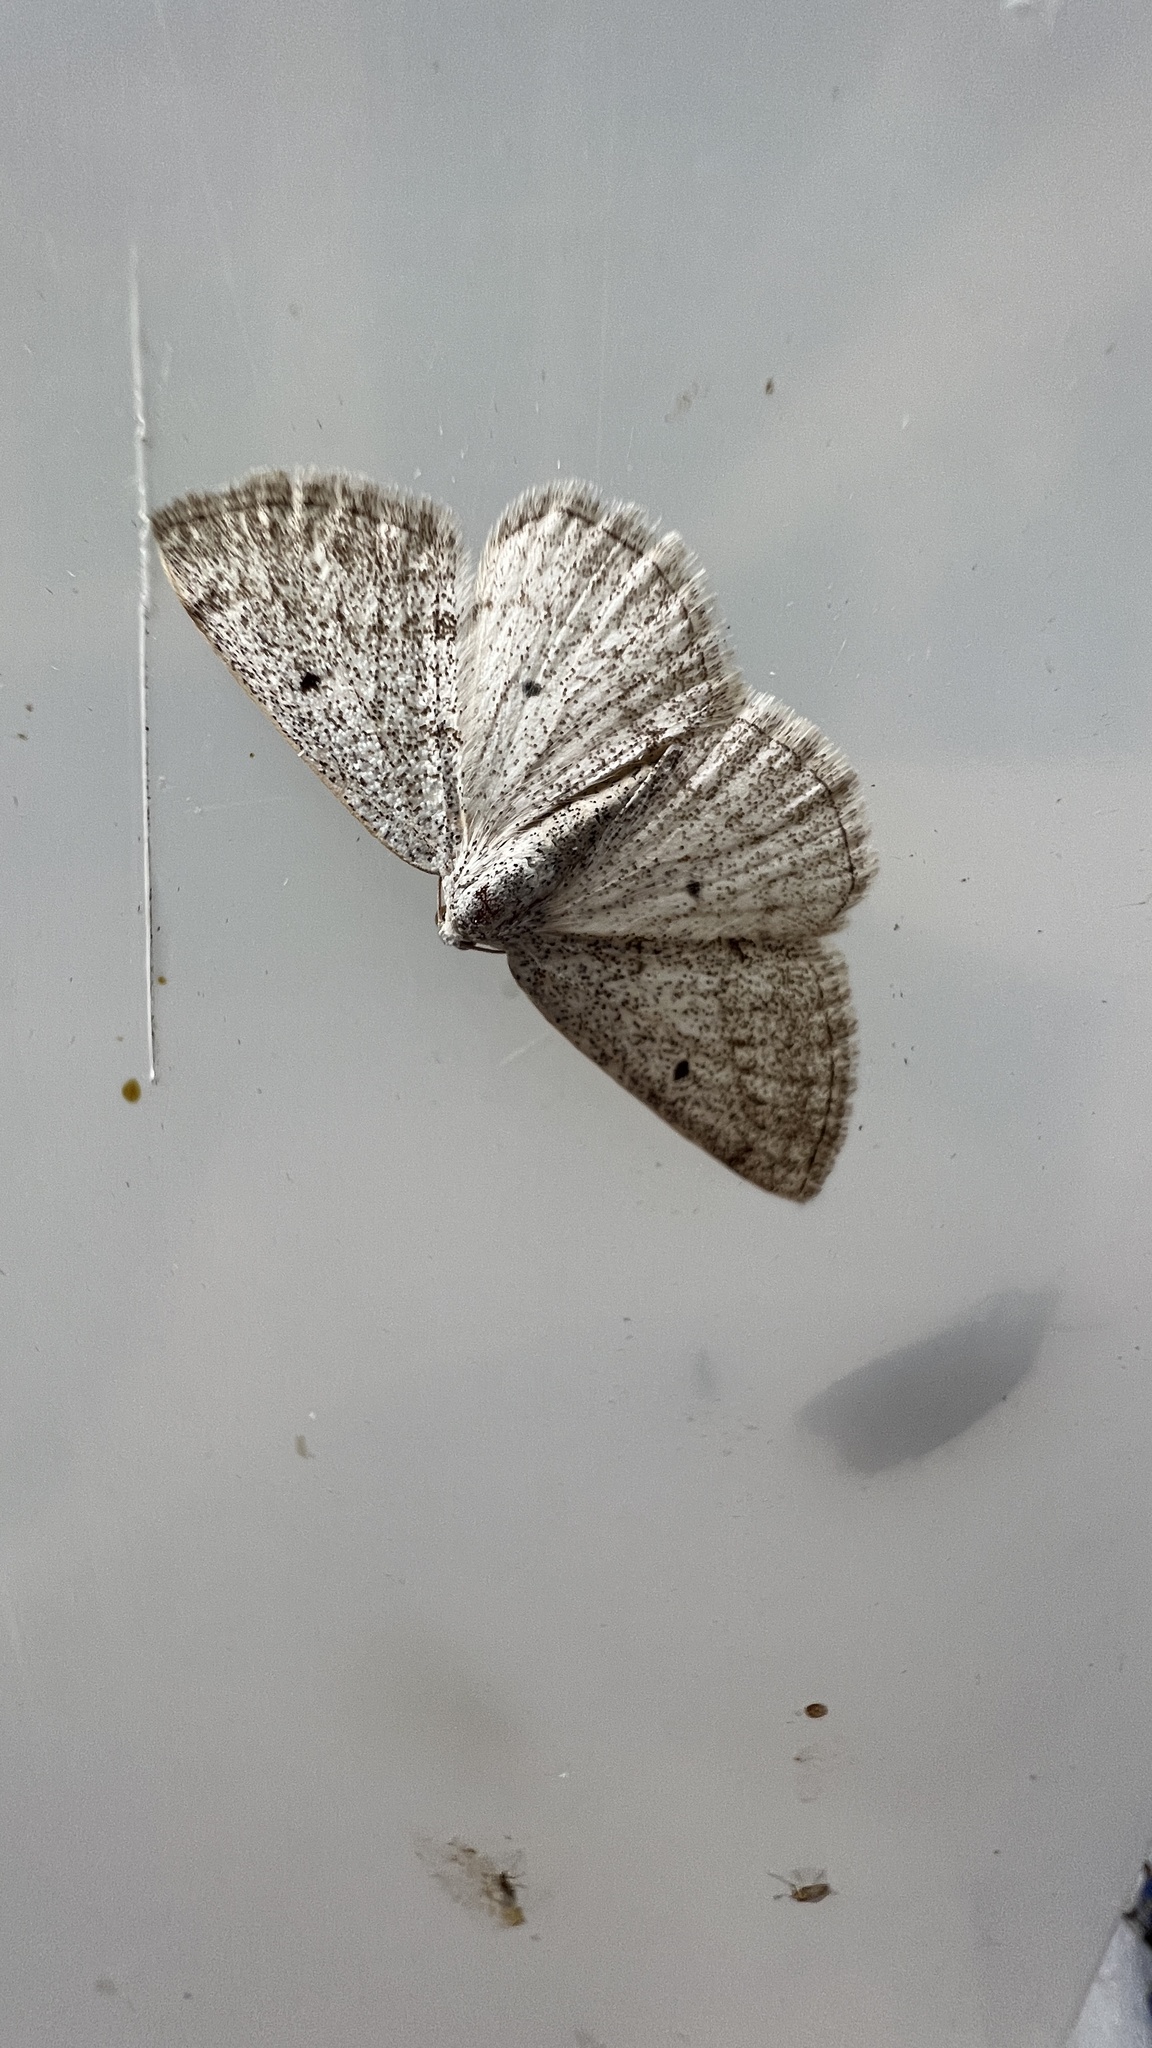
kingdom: Animalia
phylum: Arthropoda
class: Insecta
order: Lepidoptera
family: Geometridae
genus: Lomographa
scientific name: Lomographa glomeraria
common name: Gray spring moth
